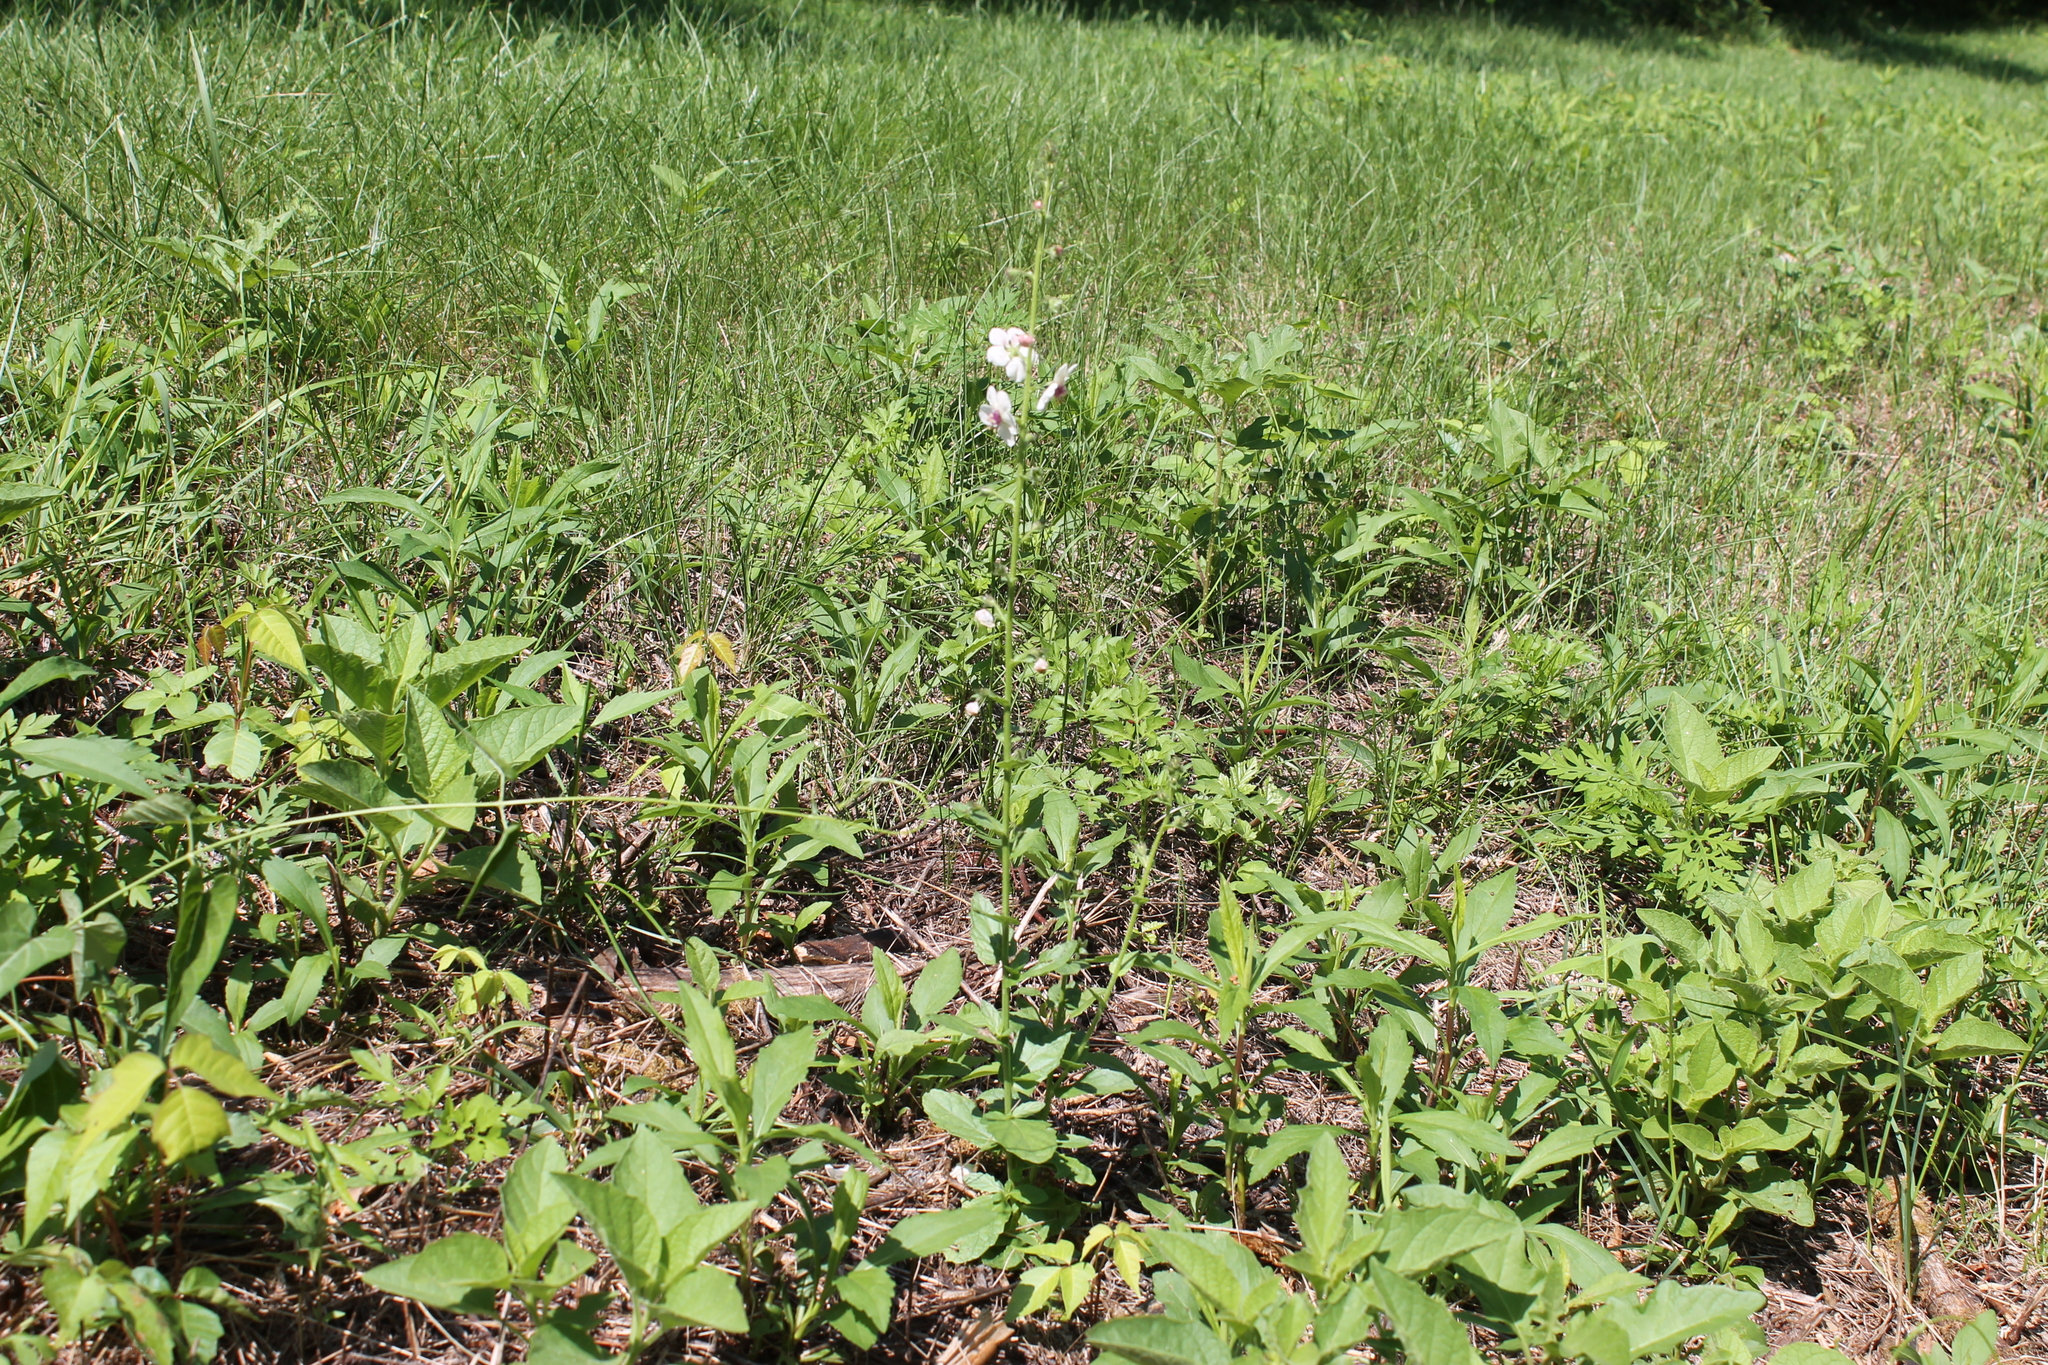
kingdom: Plantae
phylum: Tracheophyta
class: Magnoliopsida
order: Lamiales
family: Scrophulariaceae
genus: Verbascum
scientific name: Verbascum blattaria
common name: Moth mullein
